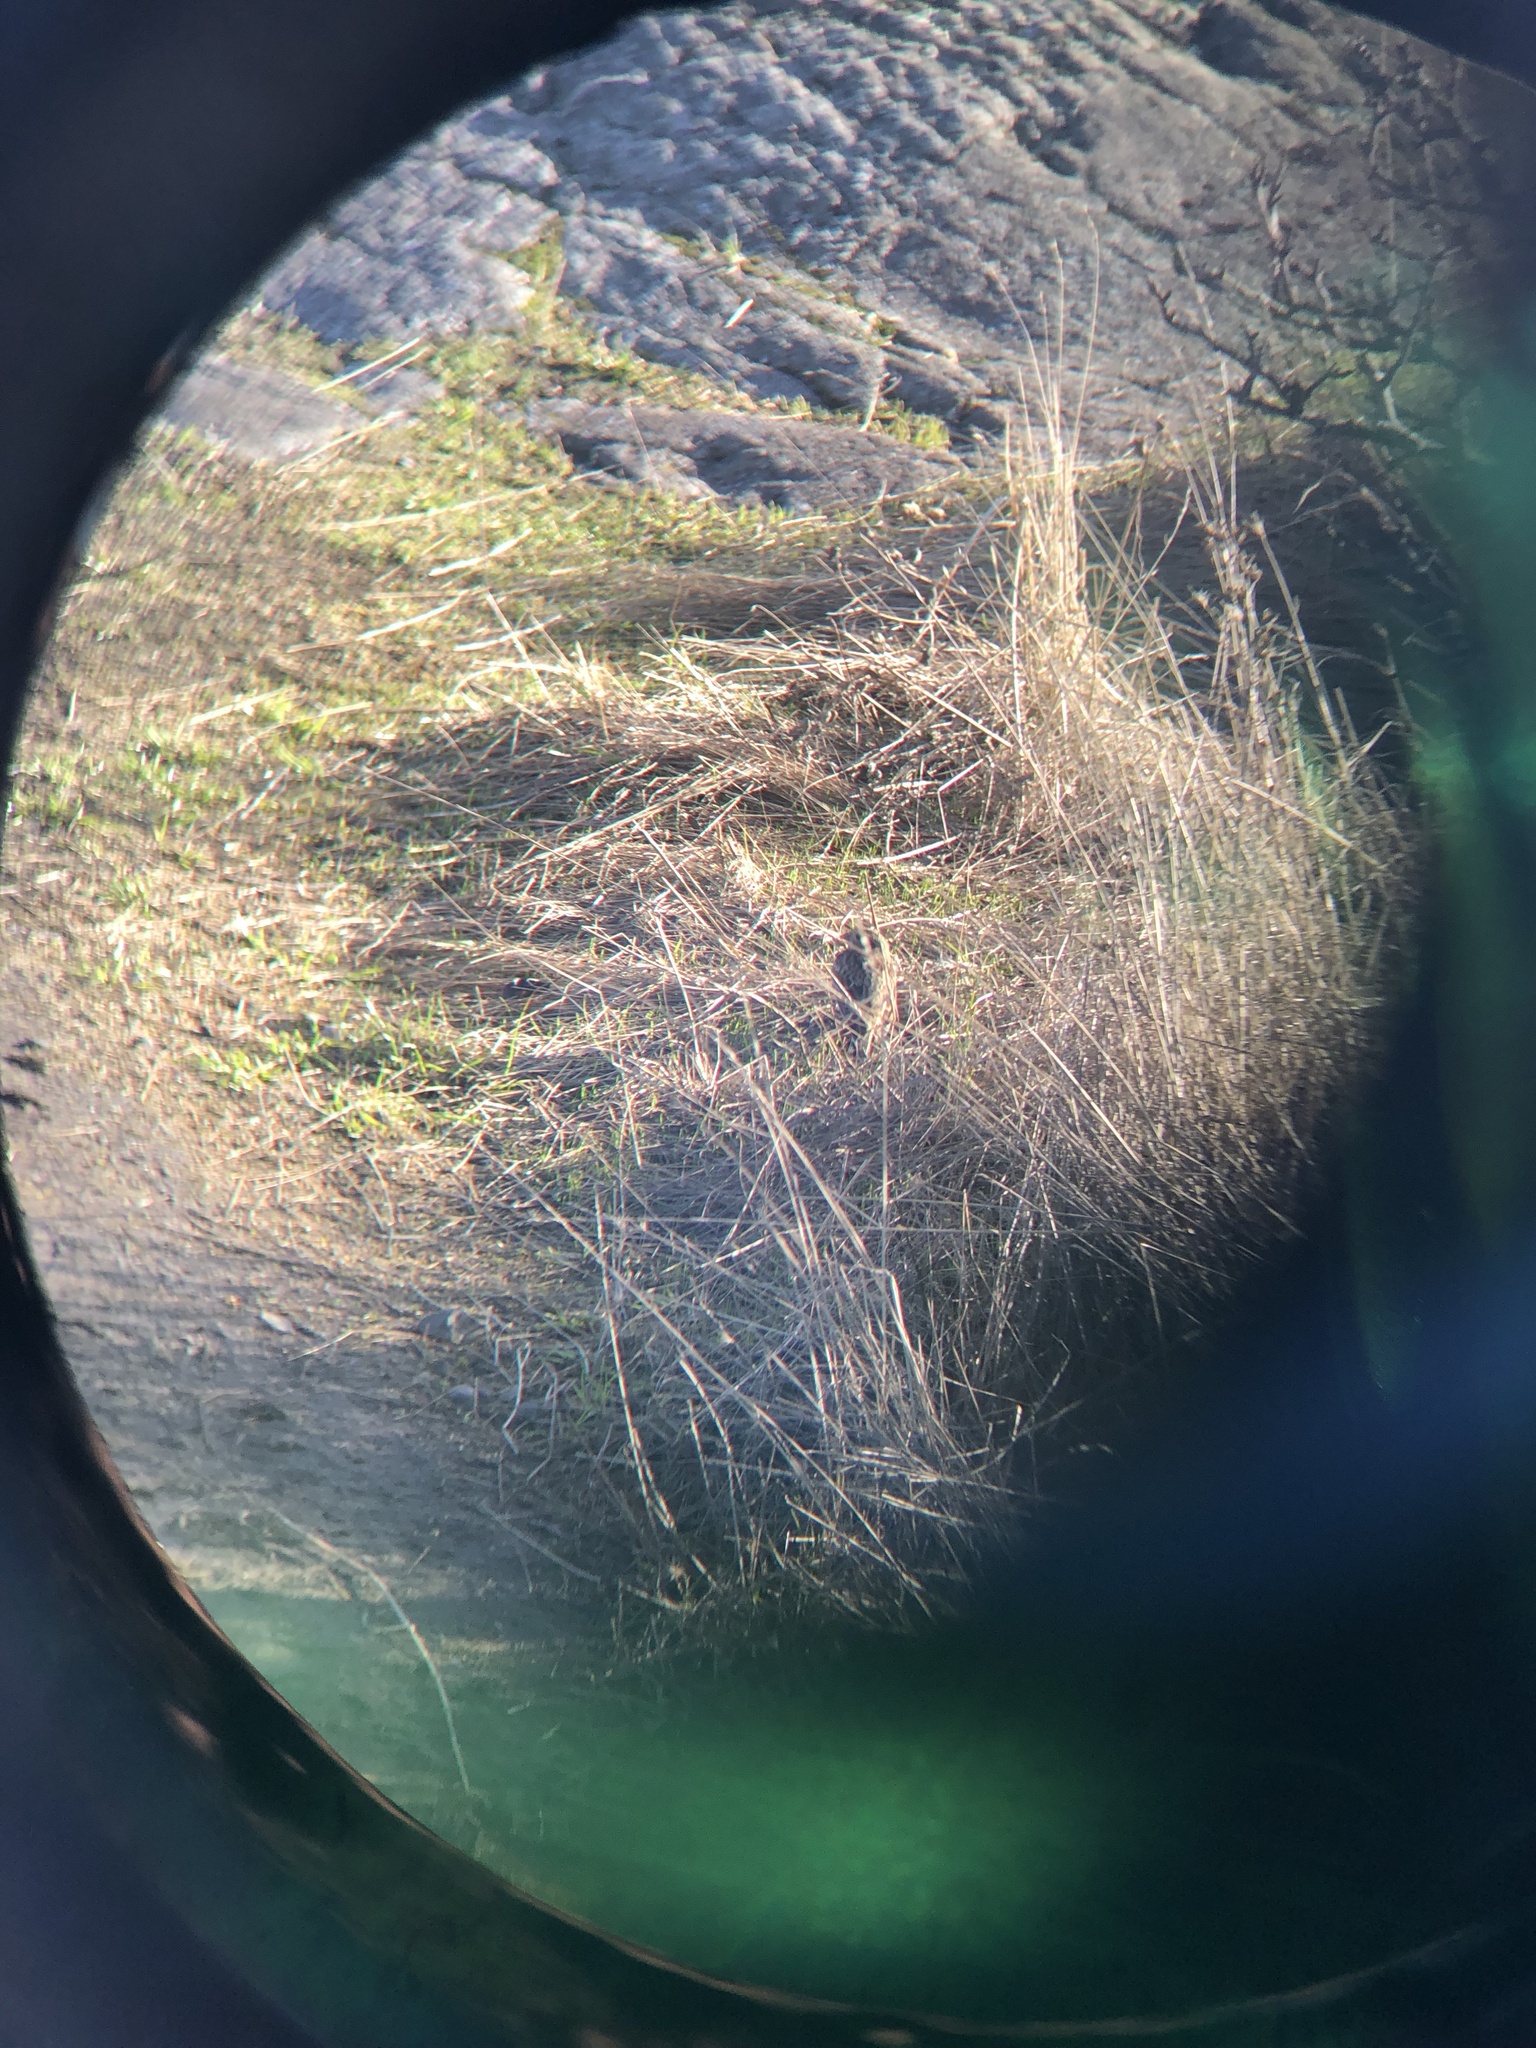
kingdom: Animalia
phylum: Chordata
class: Aves
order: Passeriformes
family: Calcariidae
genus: Calcarius
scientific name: Calcarius lapponicus
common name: Lapland longspur
